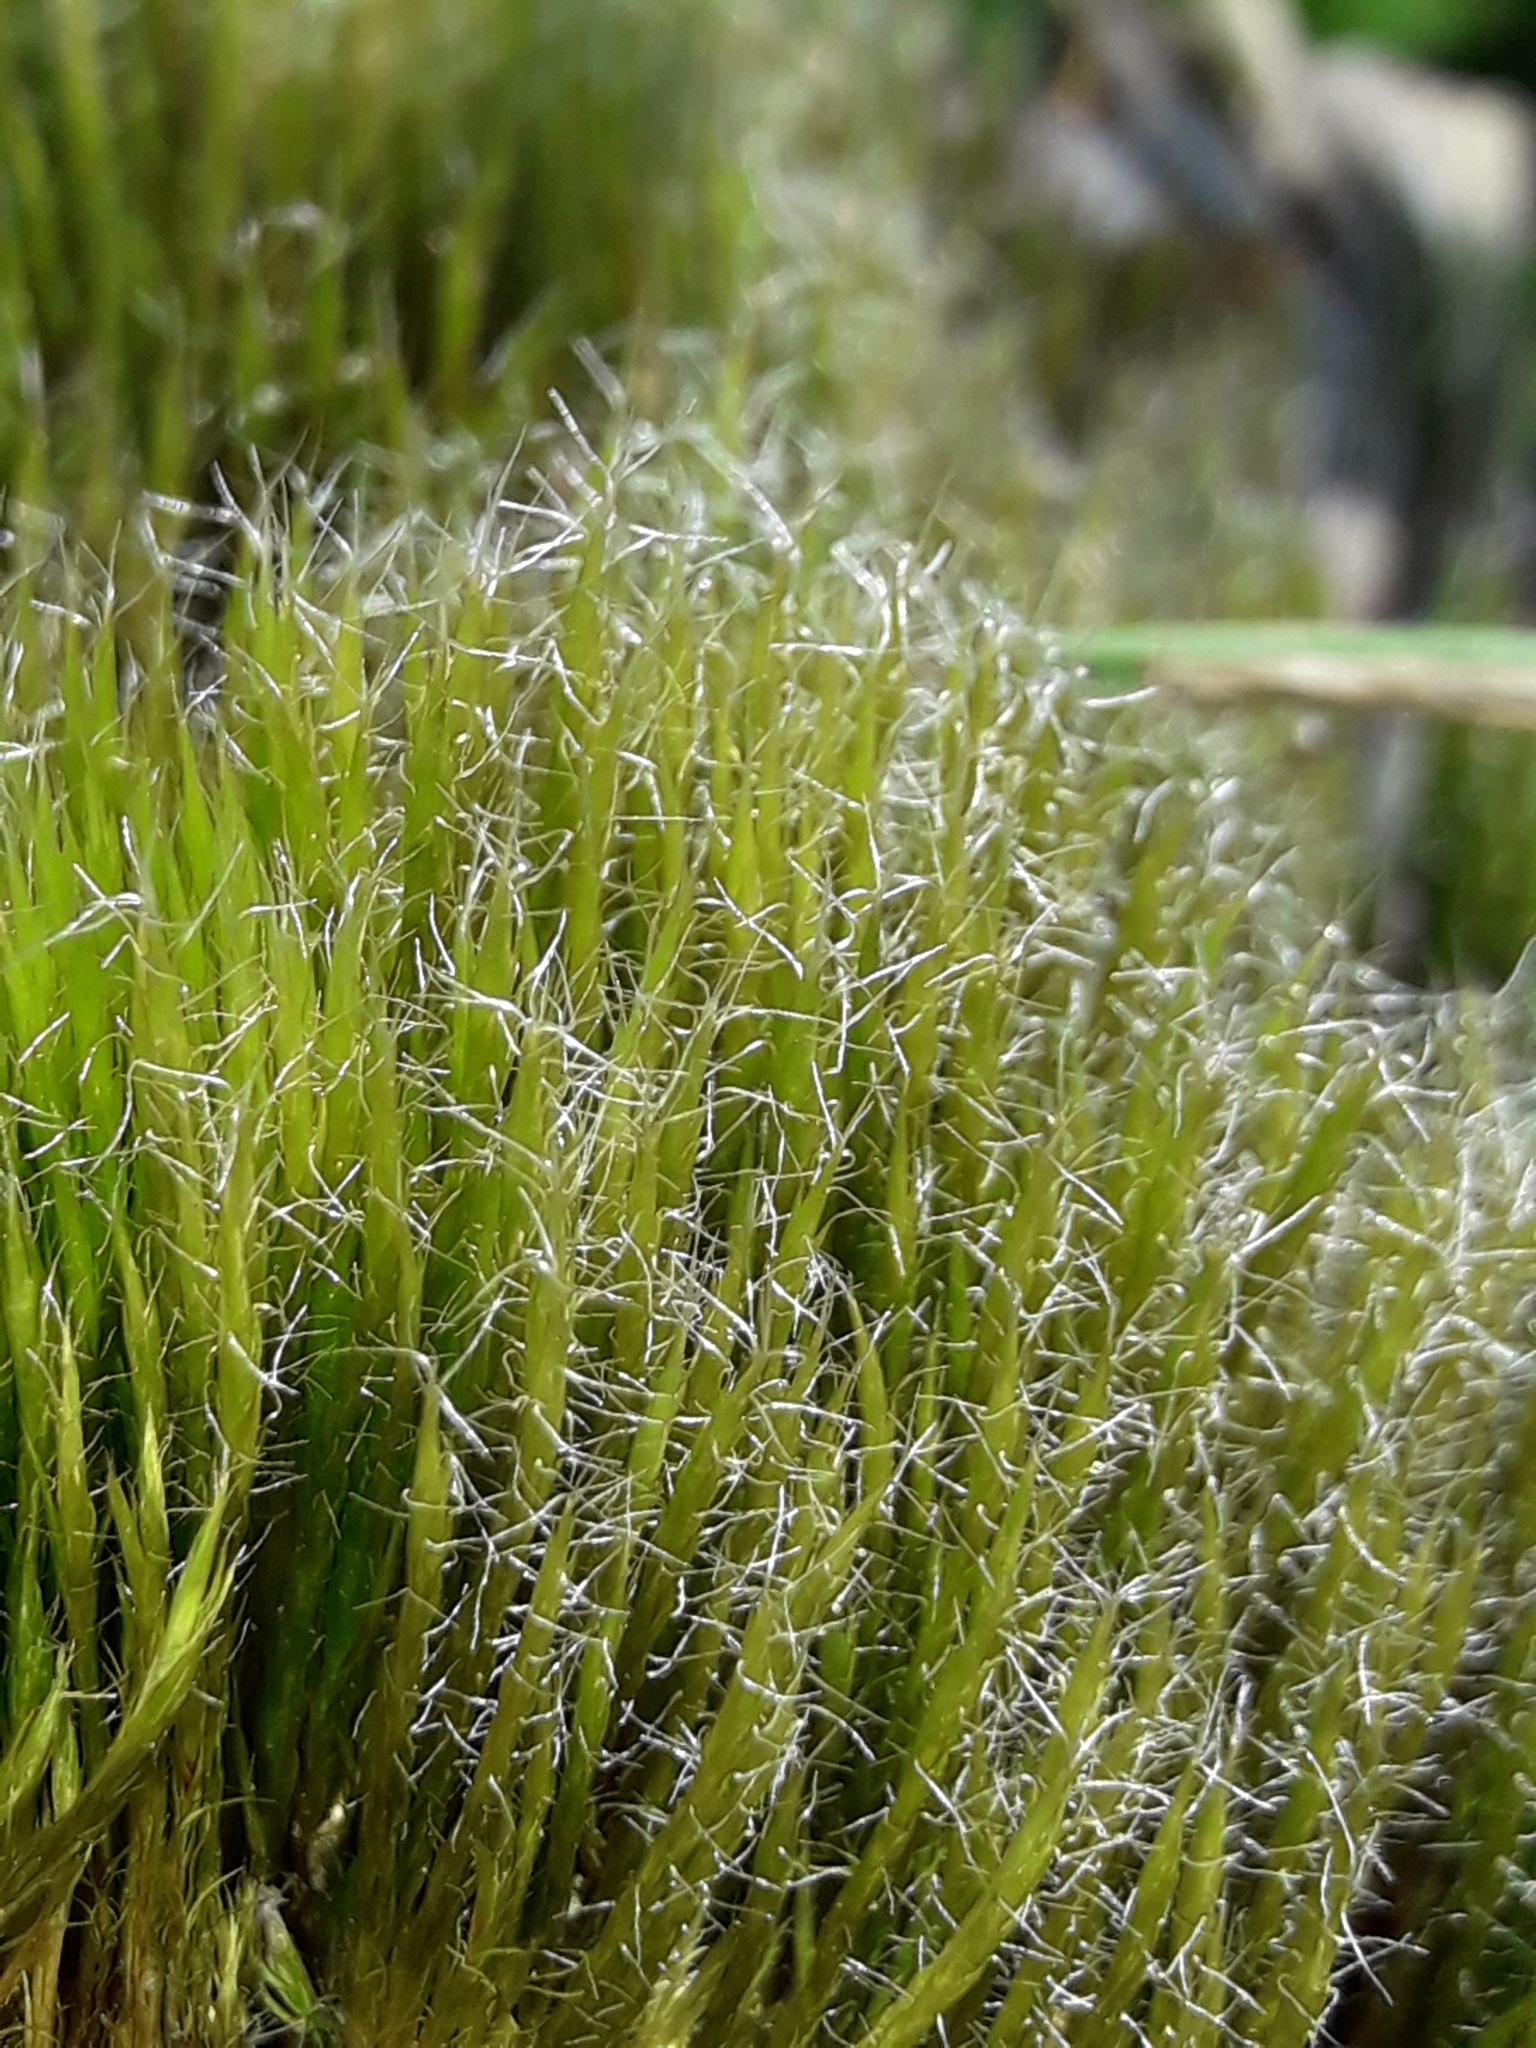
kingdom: Plantae
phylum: Bryophyta
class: Bryopsida
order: Dicranales
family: Leucobryaceae
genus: Campylopus
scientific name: Campylopus introflexus
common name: Heath star moss
